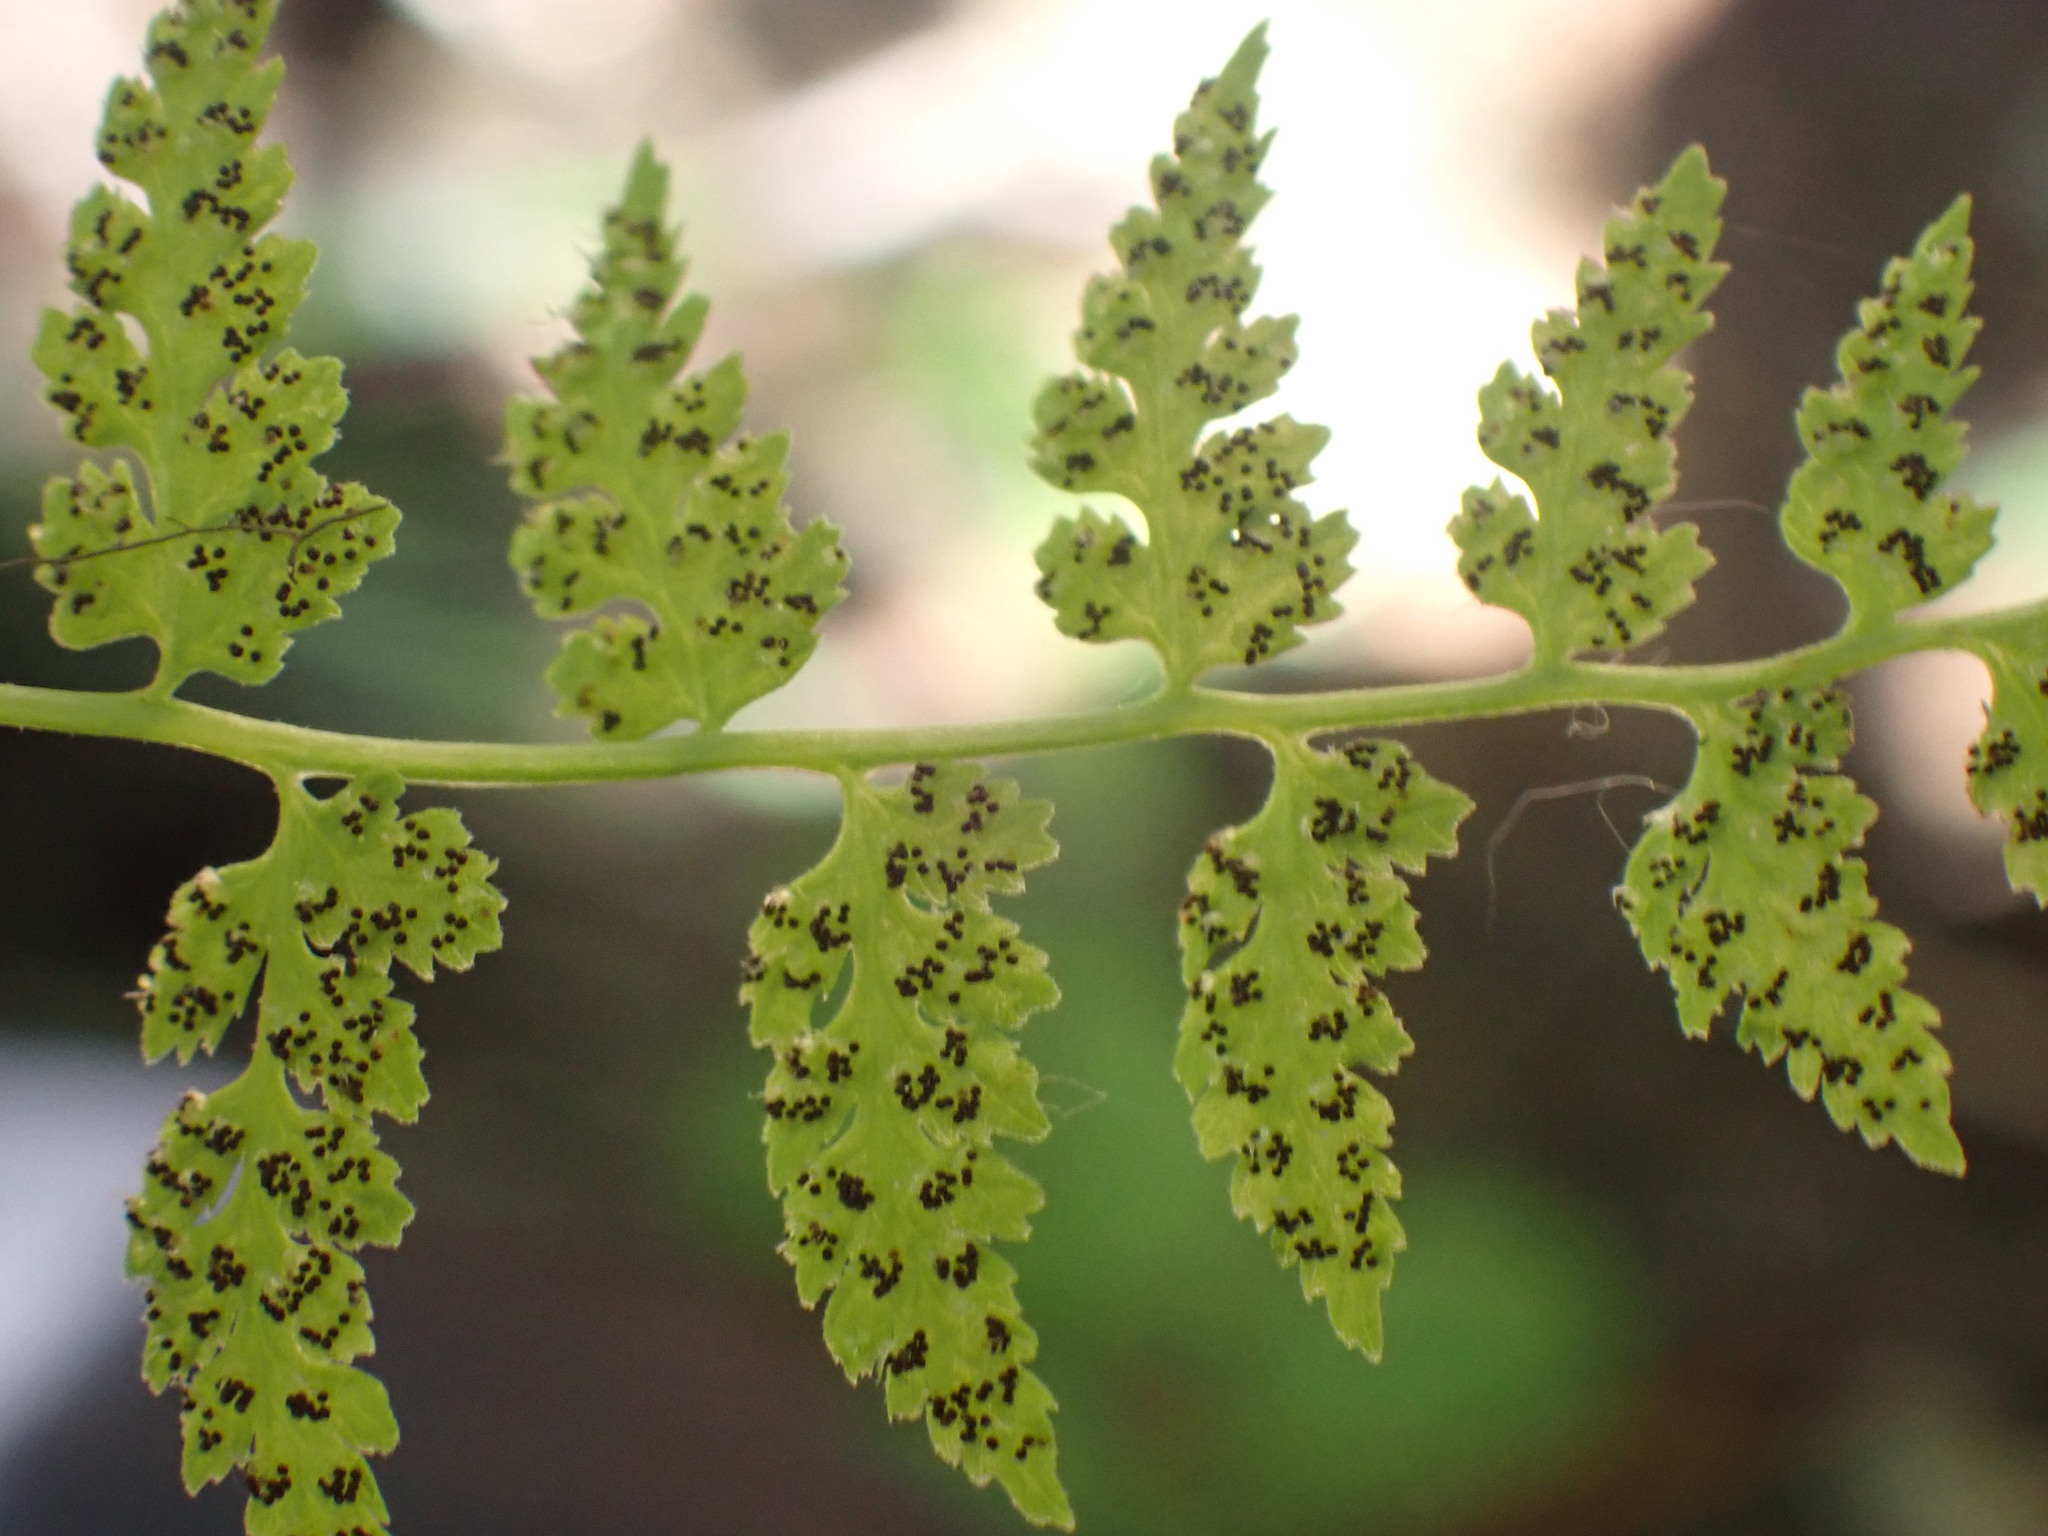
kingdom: Plantae
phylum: Tracheophyta
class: Polypodiopsida
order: Polypodiales
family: Cystopteridaceae
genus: Cystopteris
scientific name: Cystopteris fragilis
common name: Brittle bladder fern
